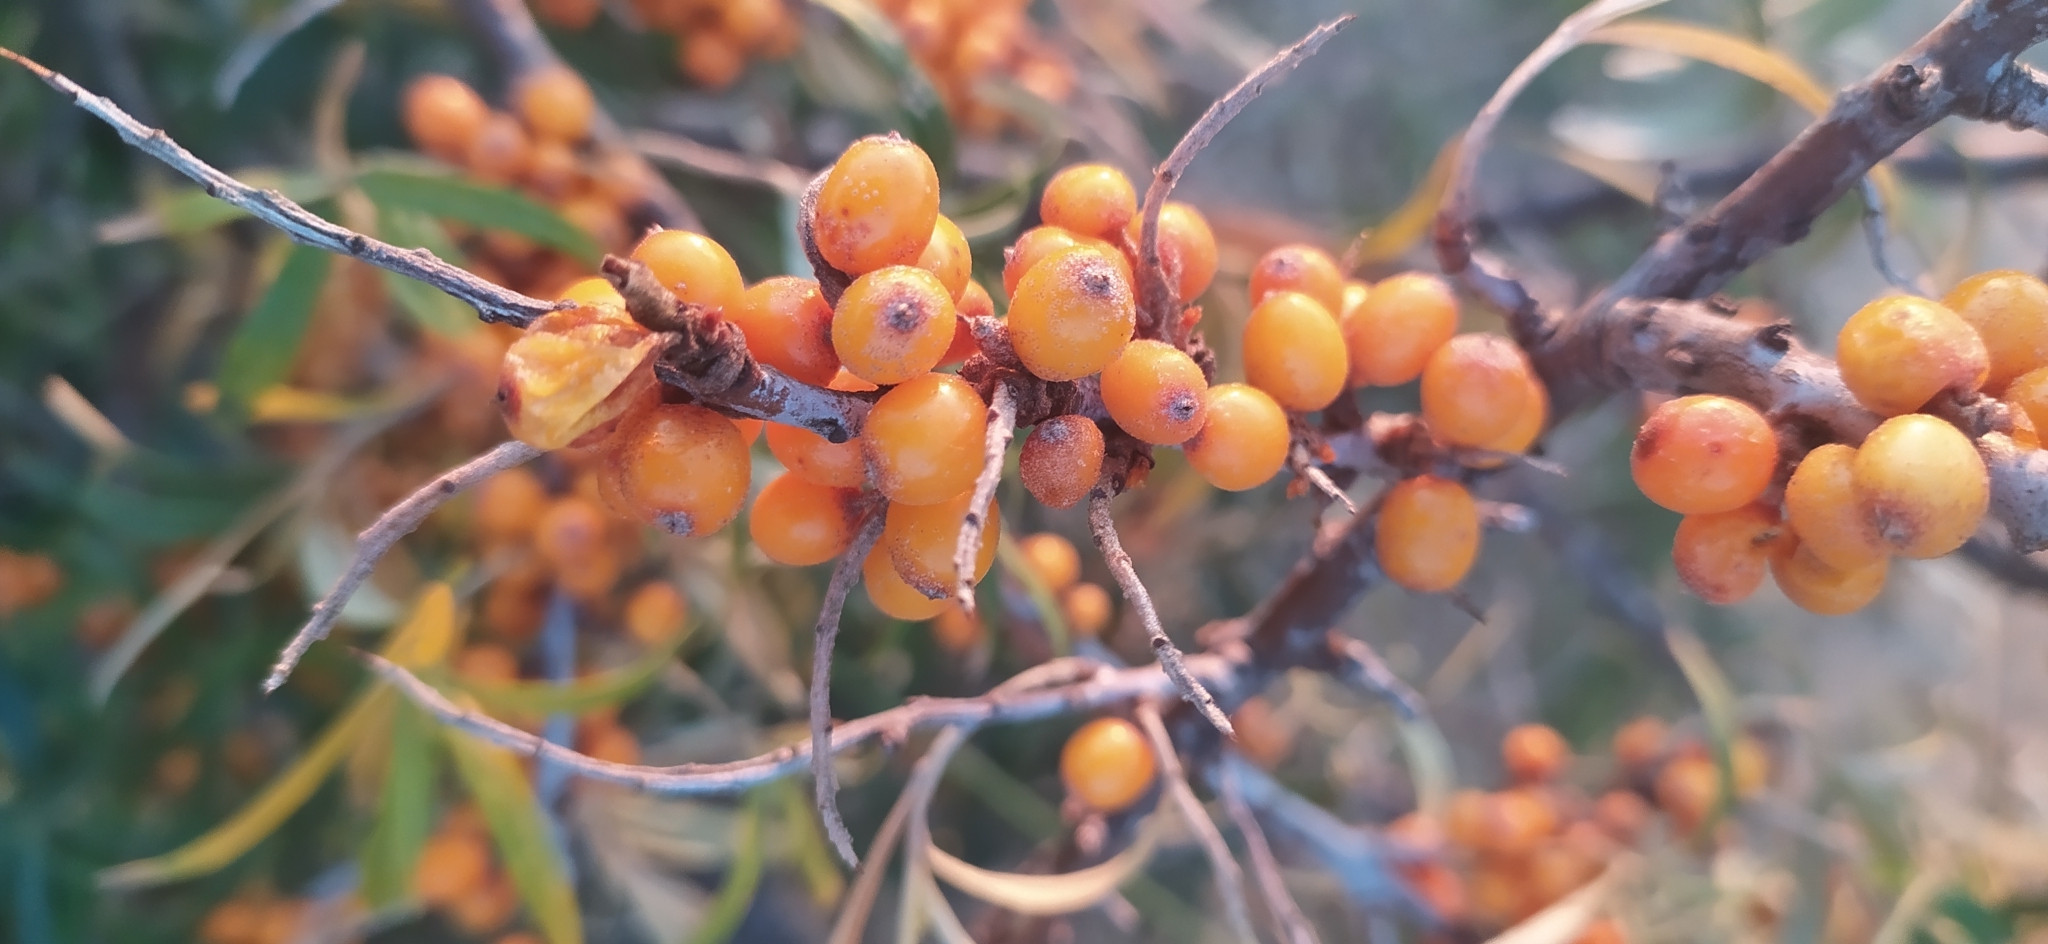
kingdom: Plantae
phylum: Tracheophyta
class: Magnoliopsida
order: Rosales
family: Elaeagnaceae
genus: Hippophae
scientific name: Hippophae rhamnoides
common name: Sea-buckthorn
